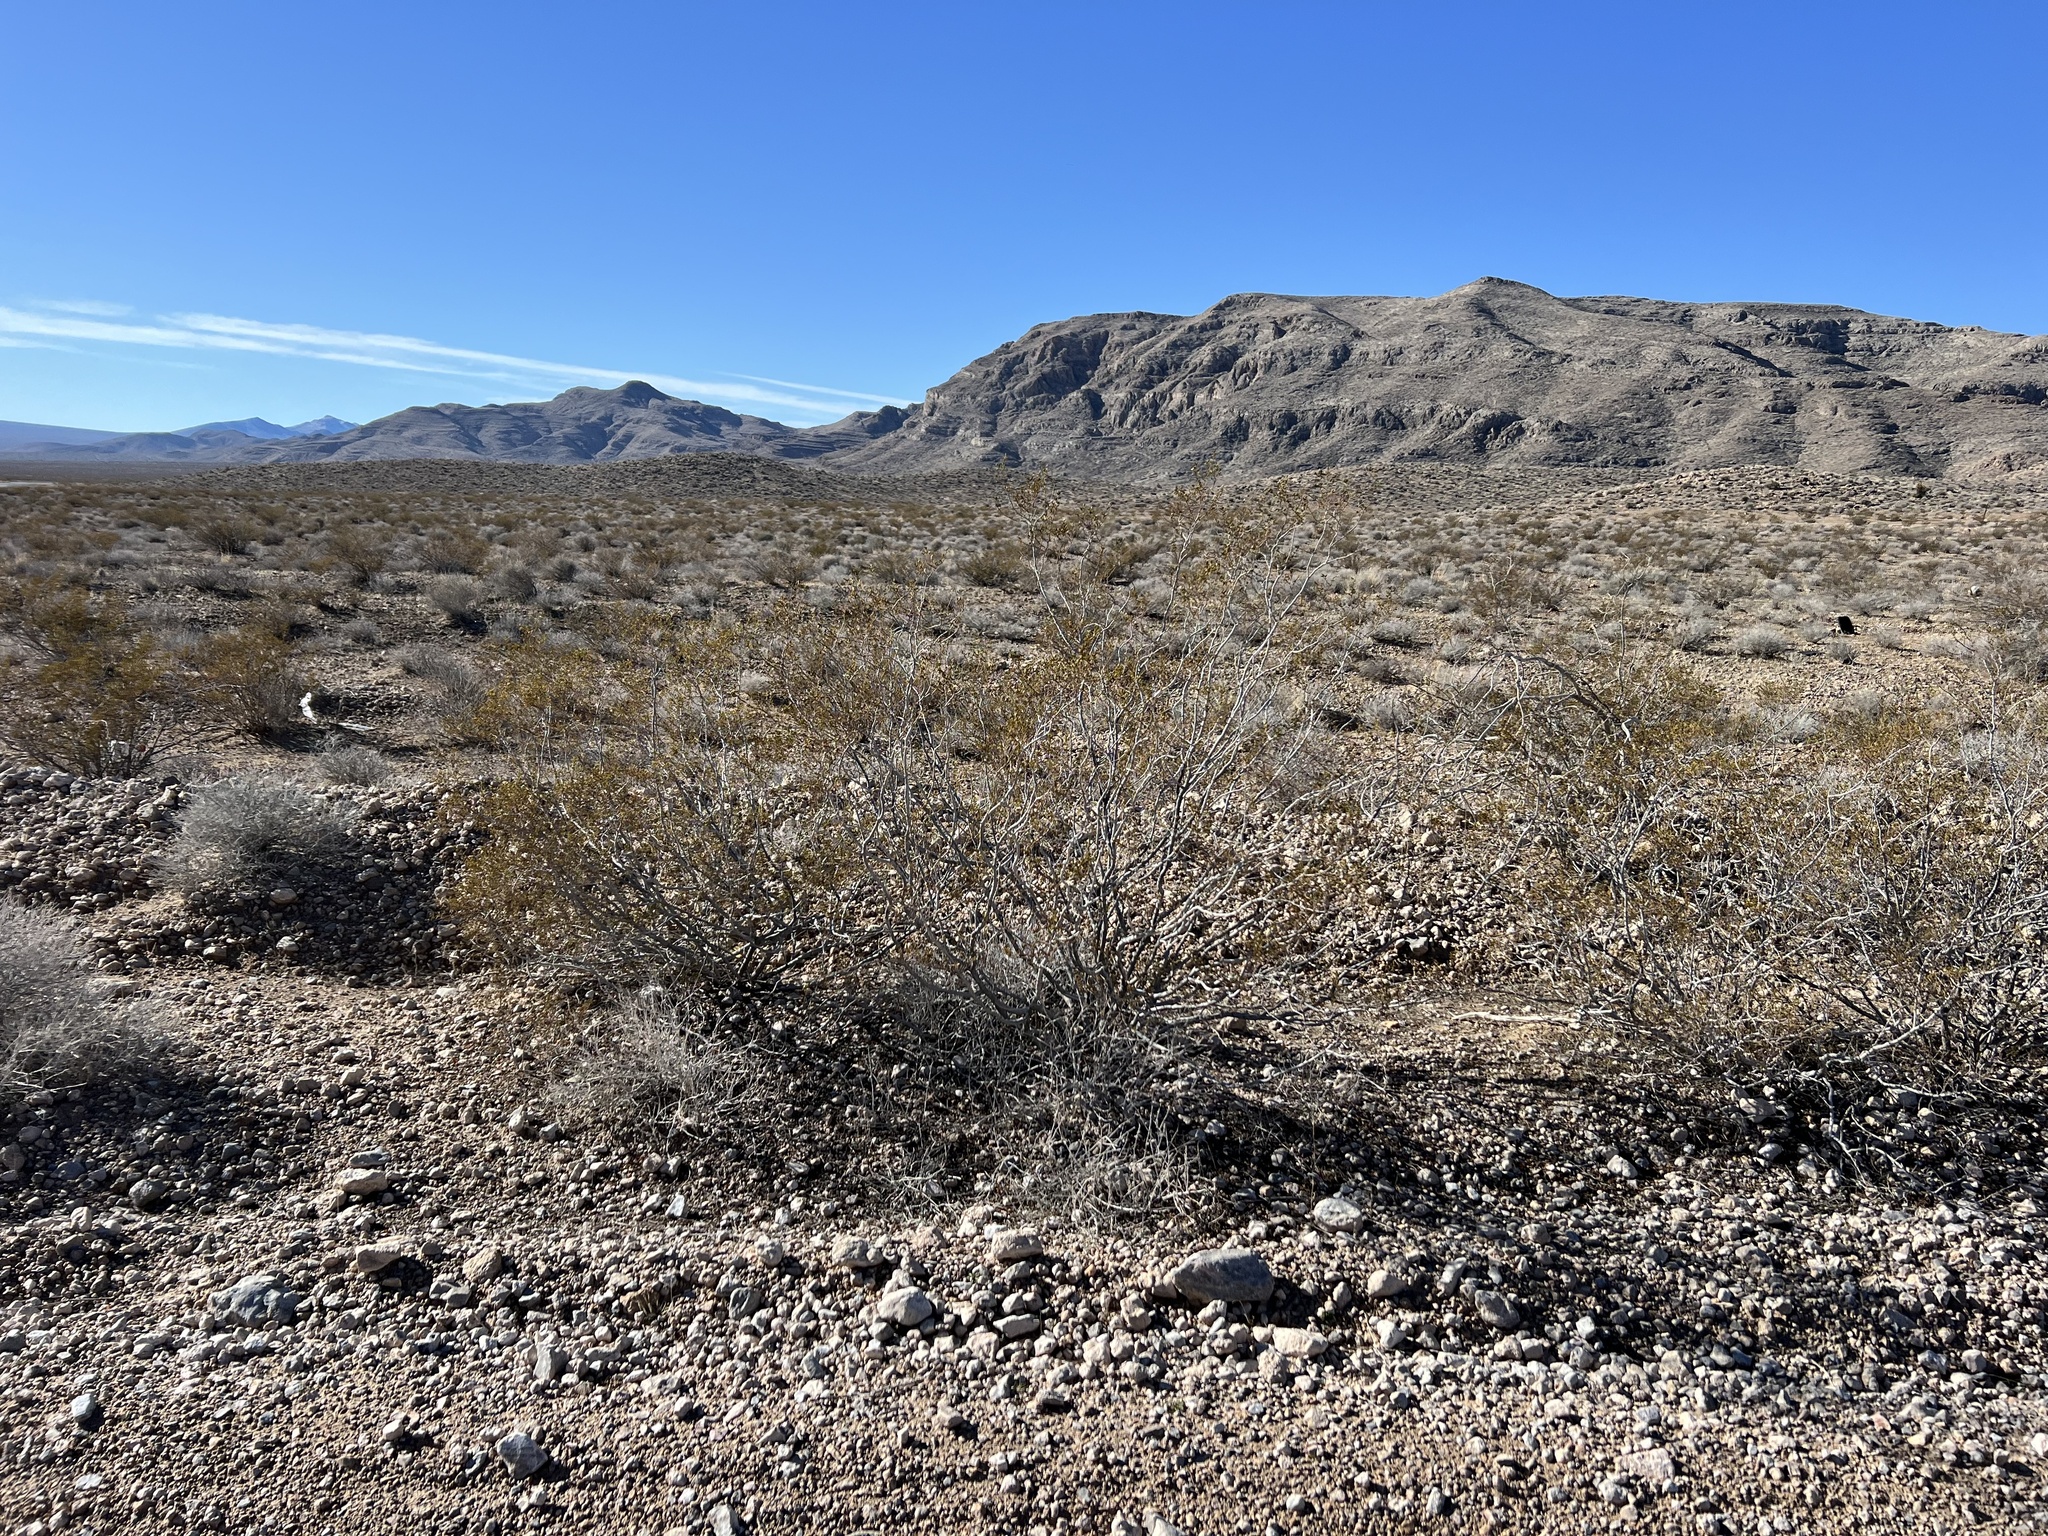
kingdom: Plantae
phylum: Tracheophyta
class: Magnoliopsida
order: Zygophyllales
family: Zygophyllaceae
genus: Larrea
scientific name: Larrea tridentata
